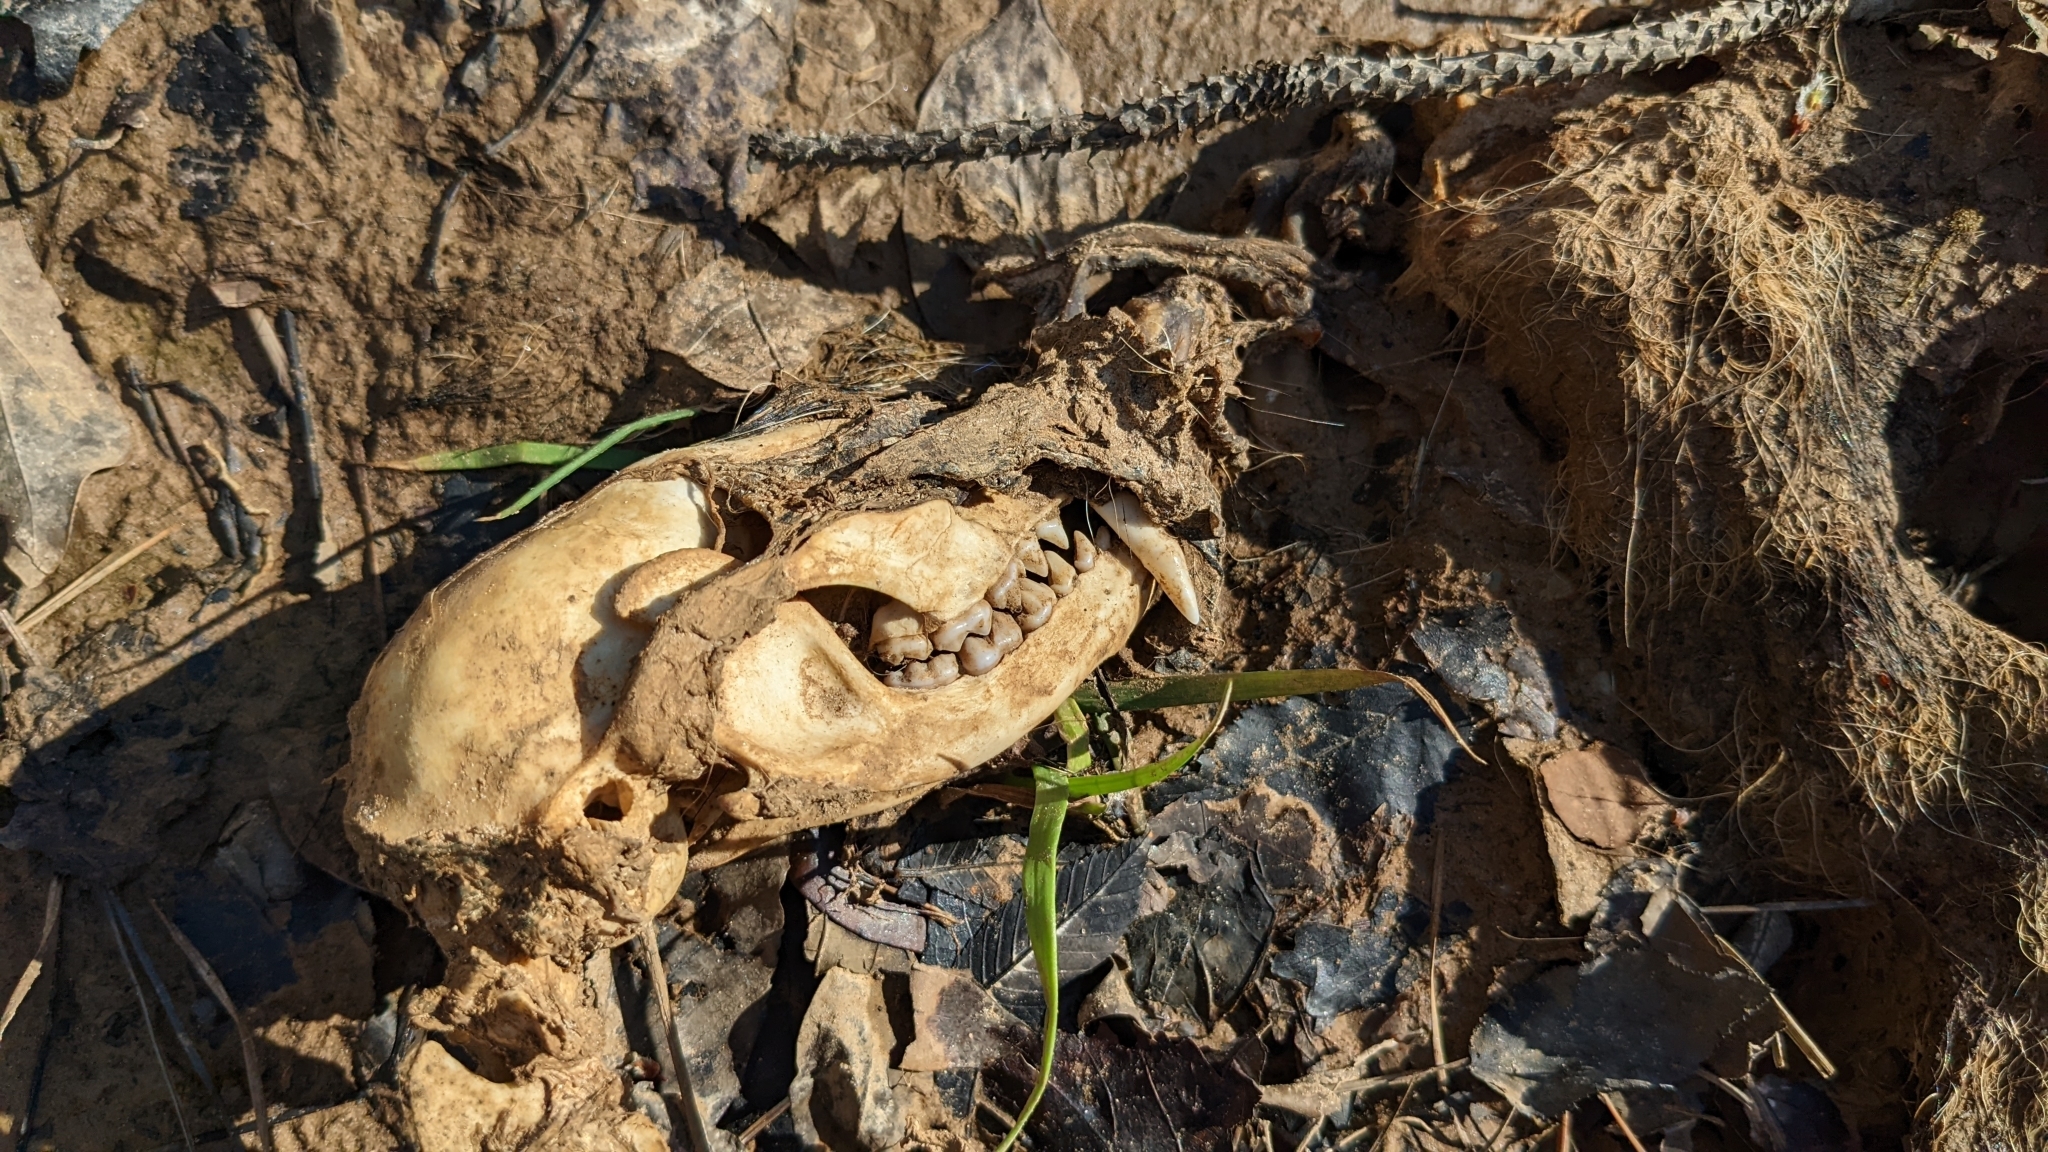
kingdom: Animalia
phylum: Chordata
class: Mammalia
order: Carnivora
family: Procyonidae
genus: Procyon
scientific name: Procyon lotor
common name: Raccoon
